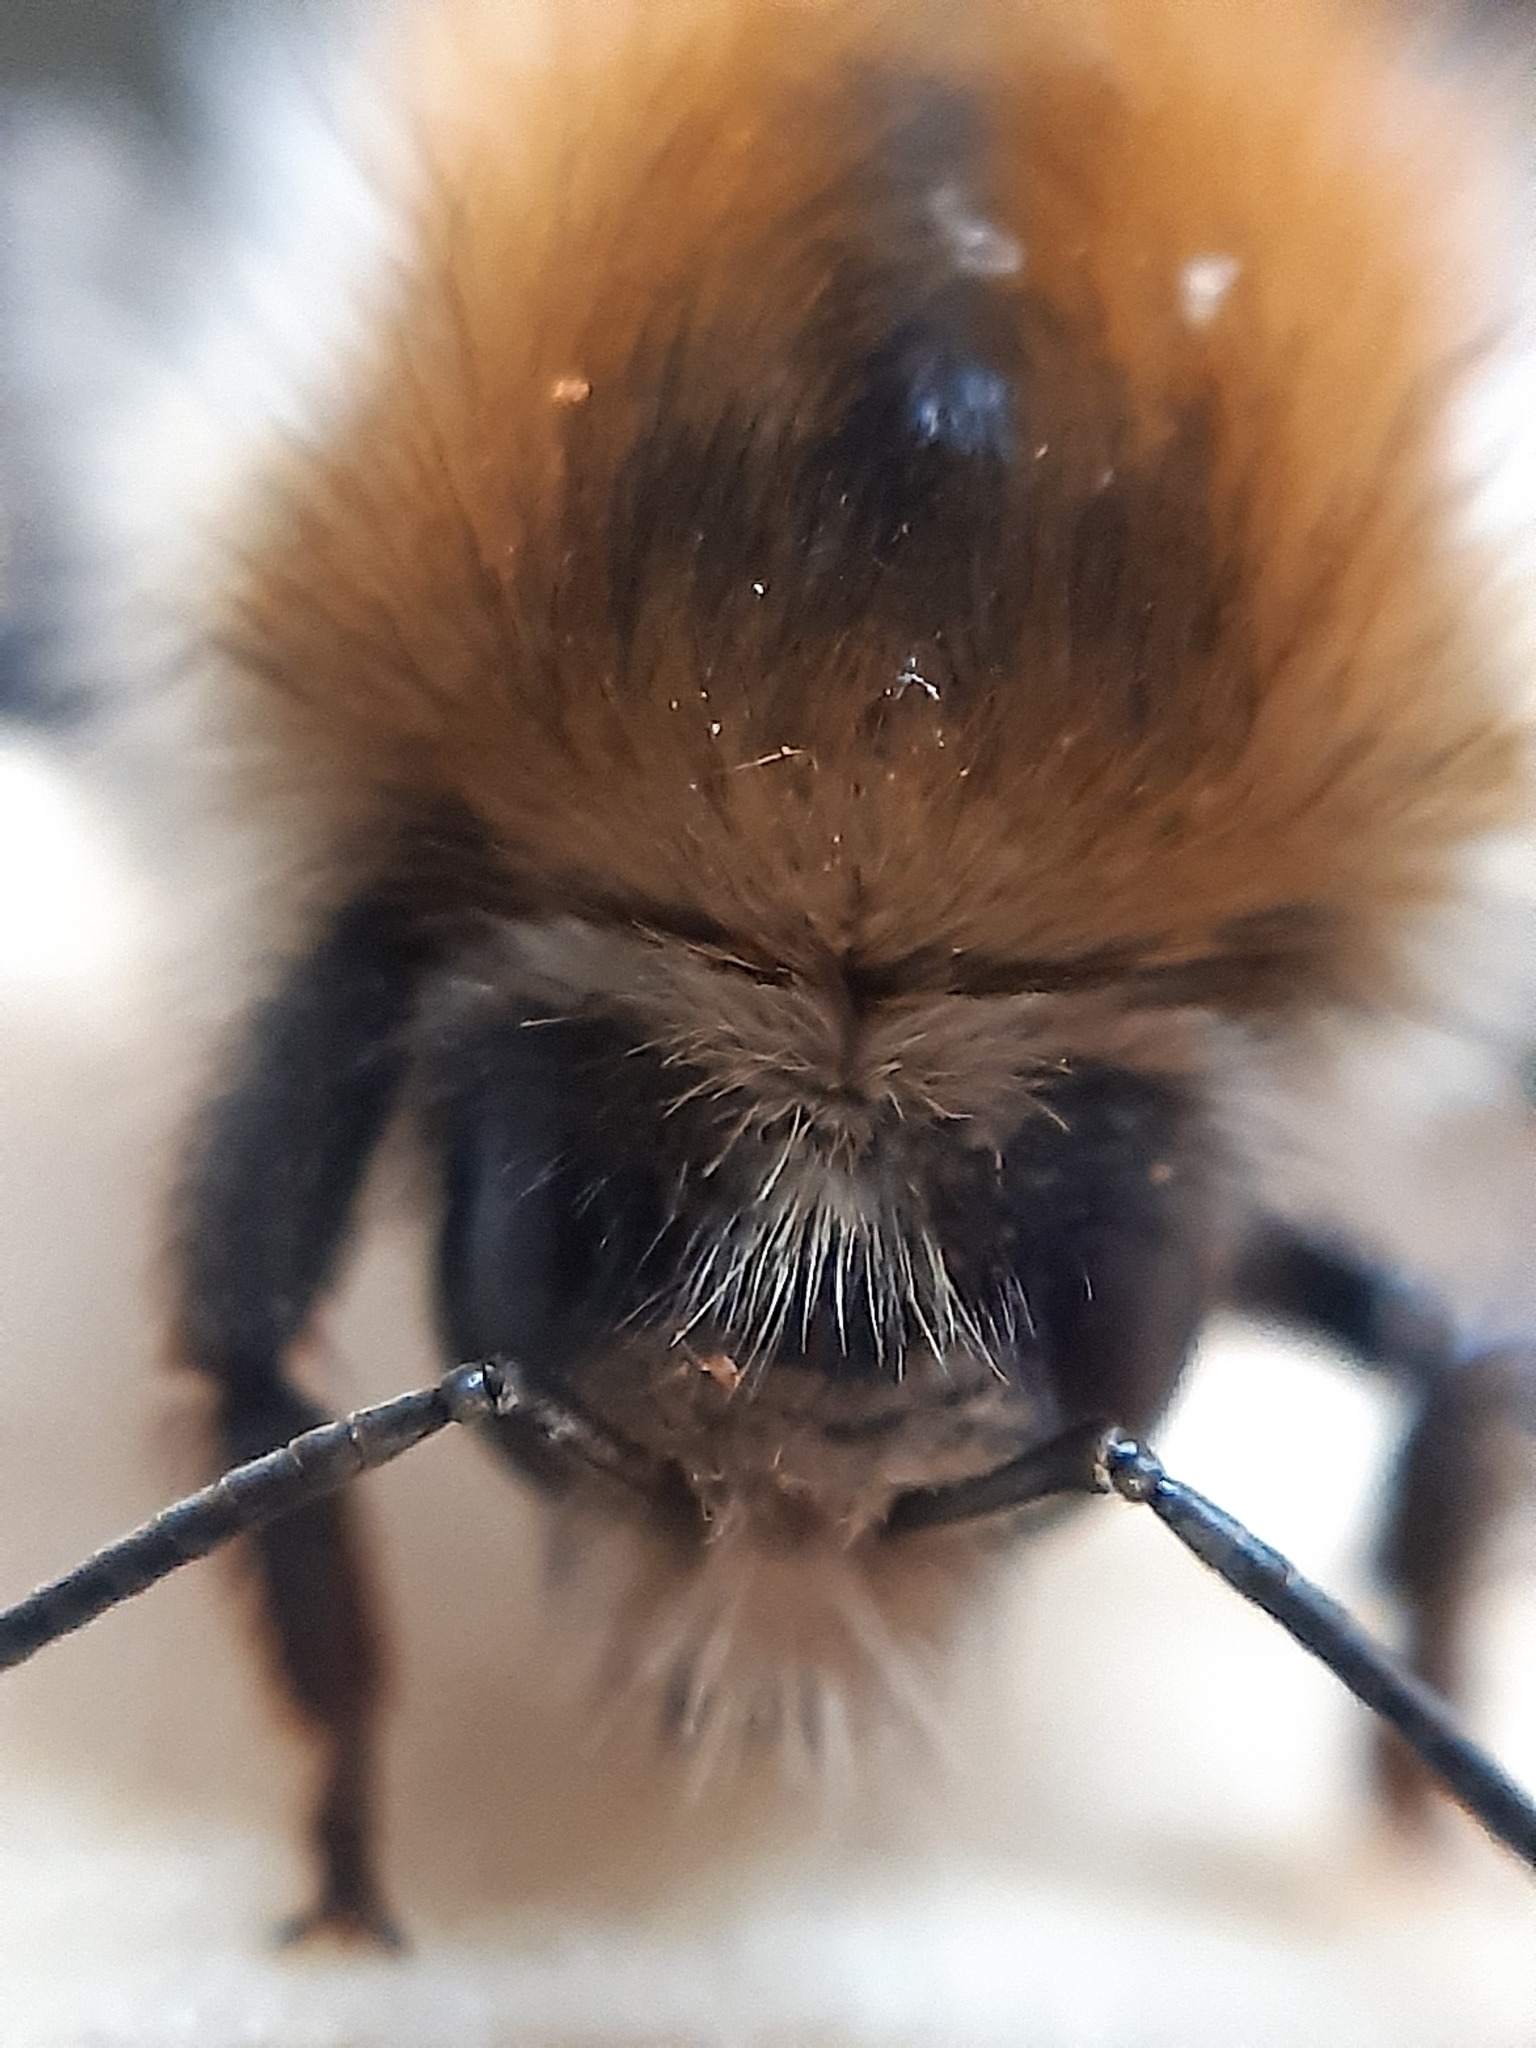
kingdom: Animalia
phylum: Arthropoda
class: Insecta
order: Hymenoptera
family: Apidae
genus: Bombus
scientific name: Bombus pascuorum
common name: Common carder bee
